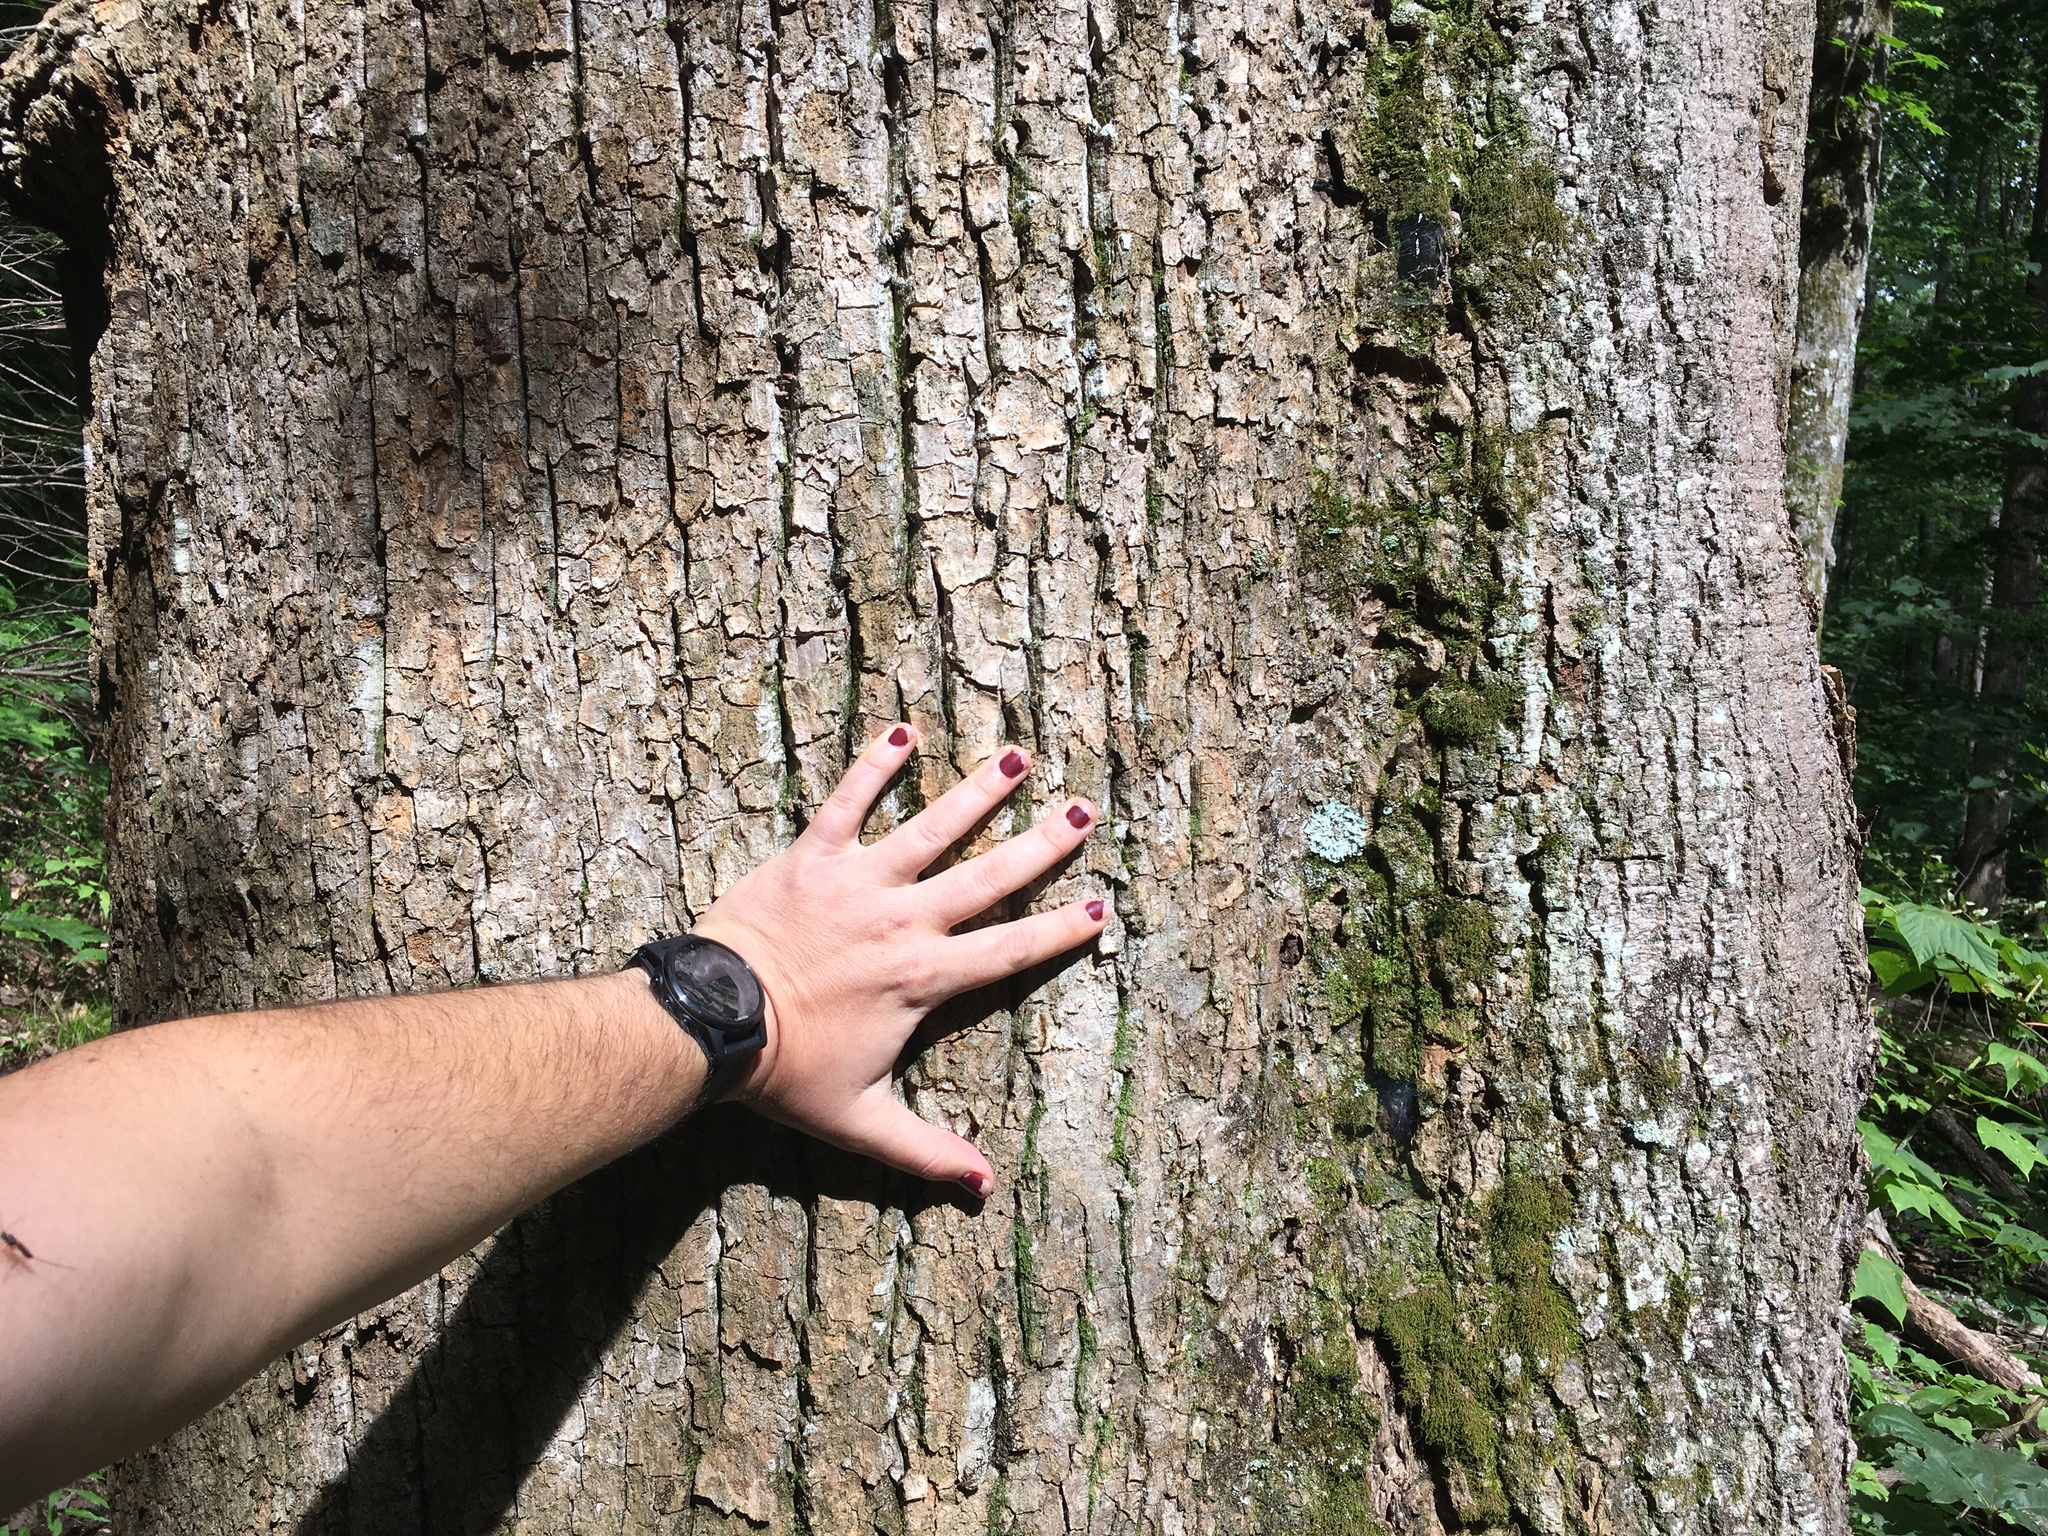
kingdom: Plantae
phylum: Tracheophyta
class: Magnoliopsida
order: Magnoliales
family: Magnoliaceae
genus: Liriodendron
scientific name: Liriodendron tulipifera
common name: Tulip tree
